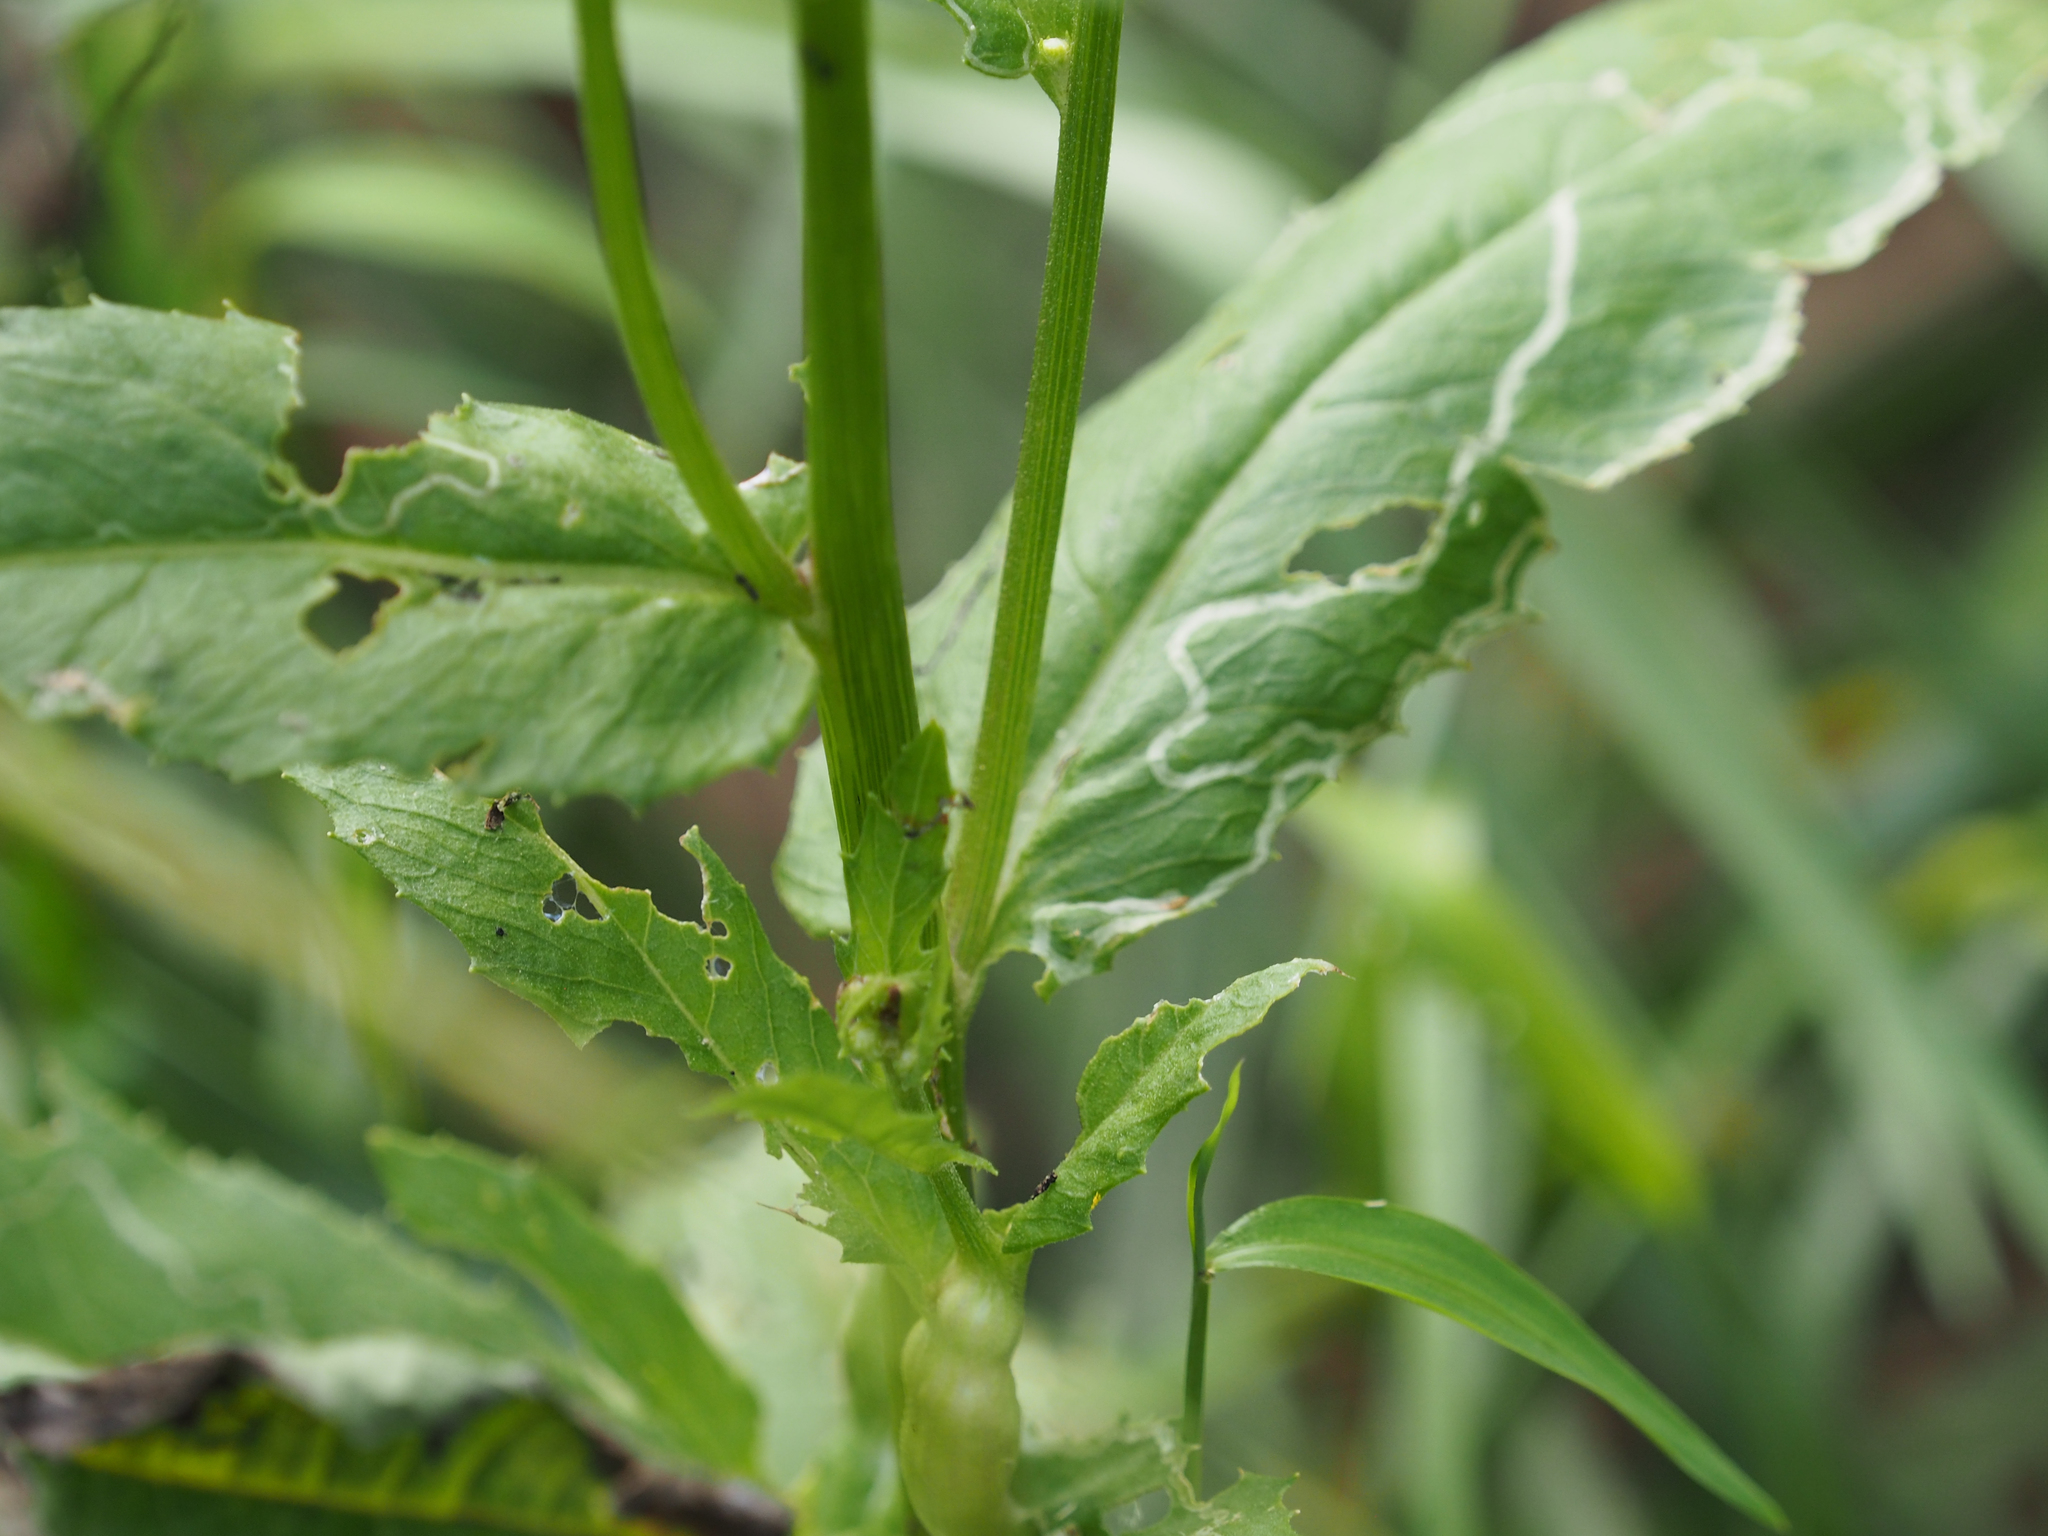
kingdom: Plantae
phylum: Tracheophyta
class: Magnoliopsida
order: Asterales
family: Asteraceae
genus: Erechtites
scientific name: Erechtites hieraciifolius
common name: American burnweed
